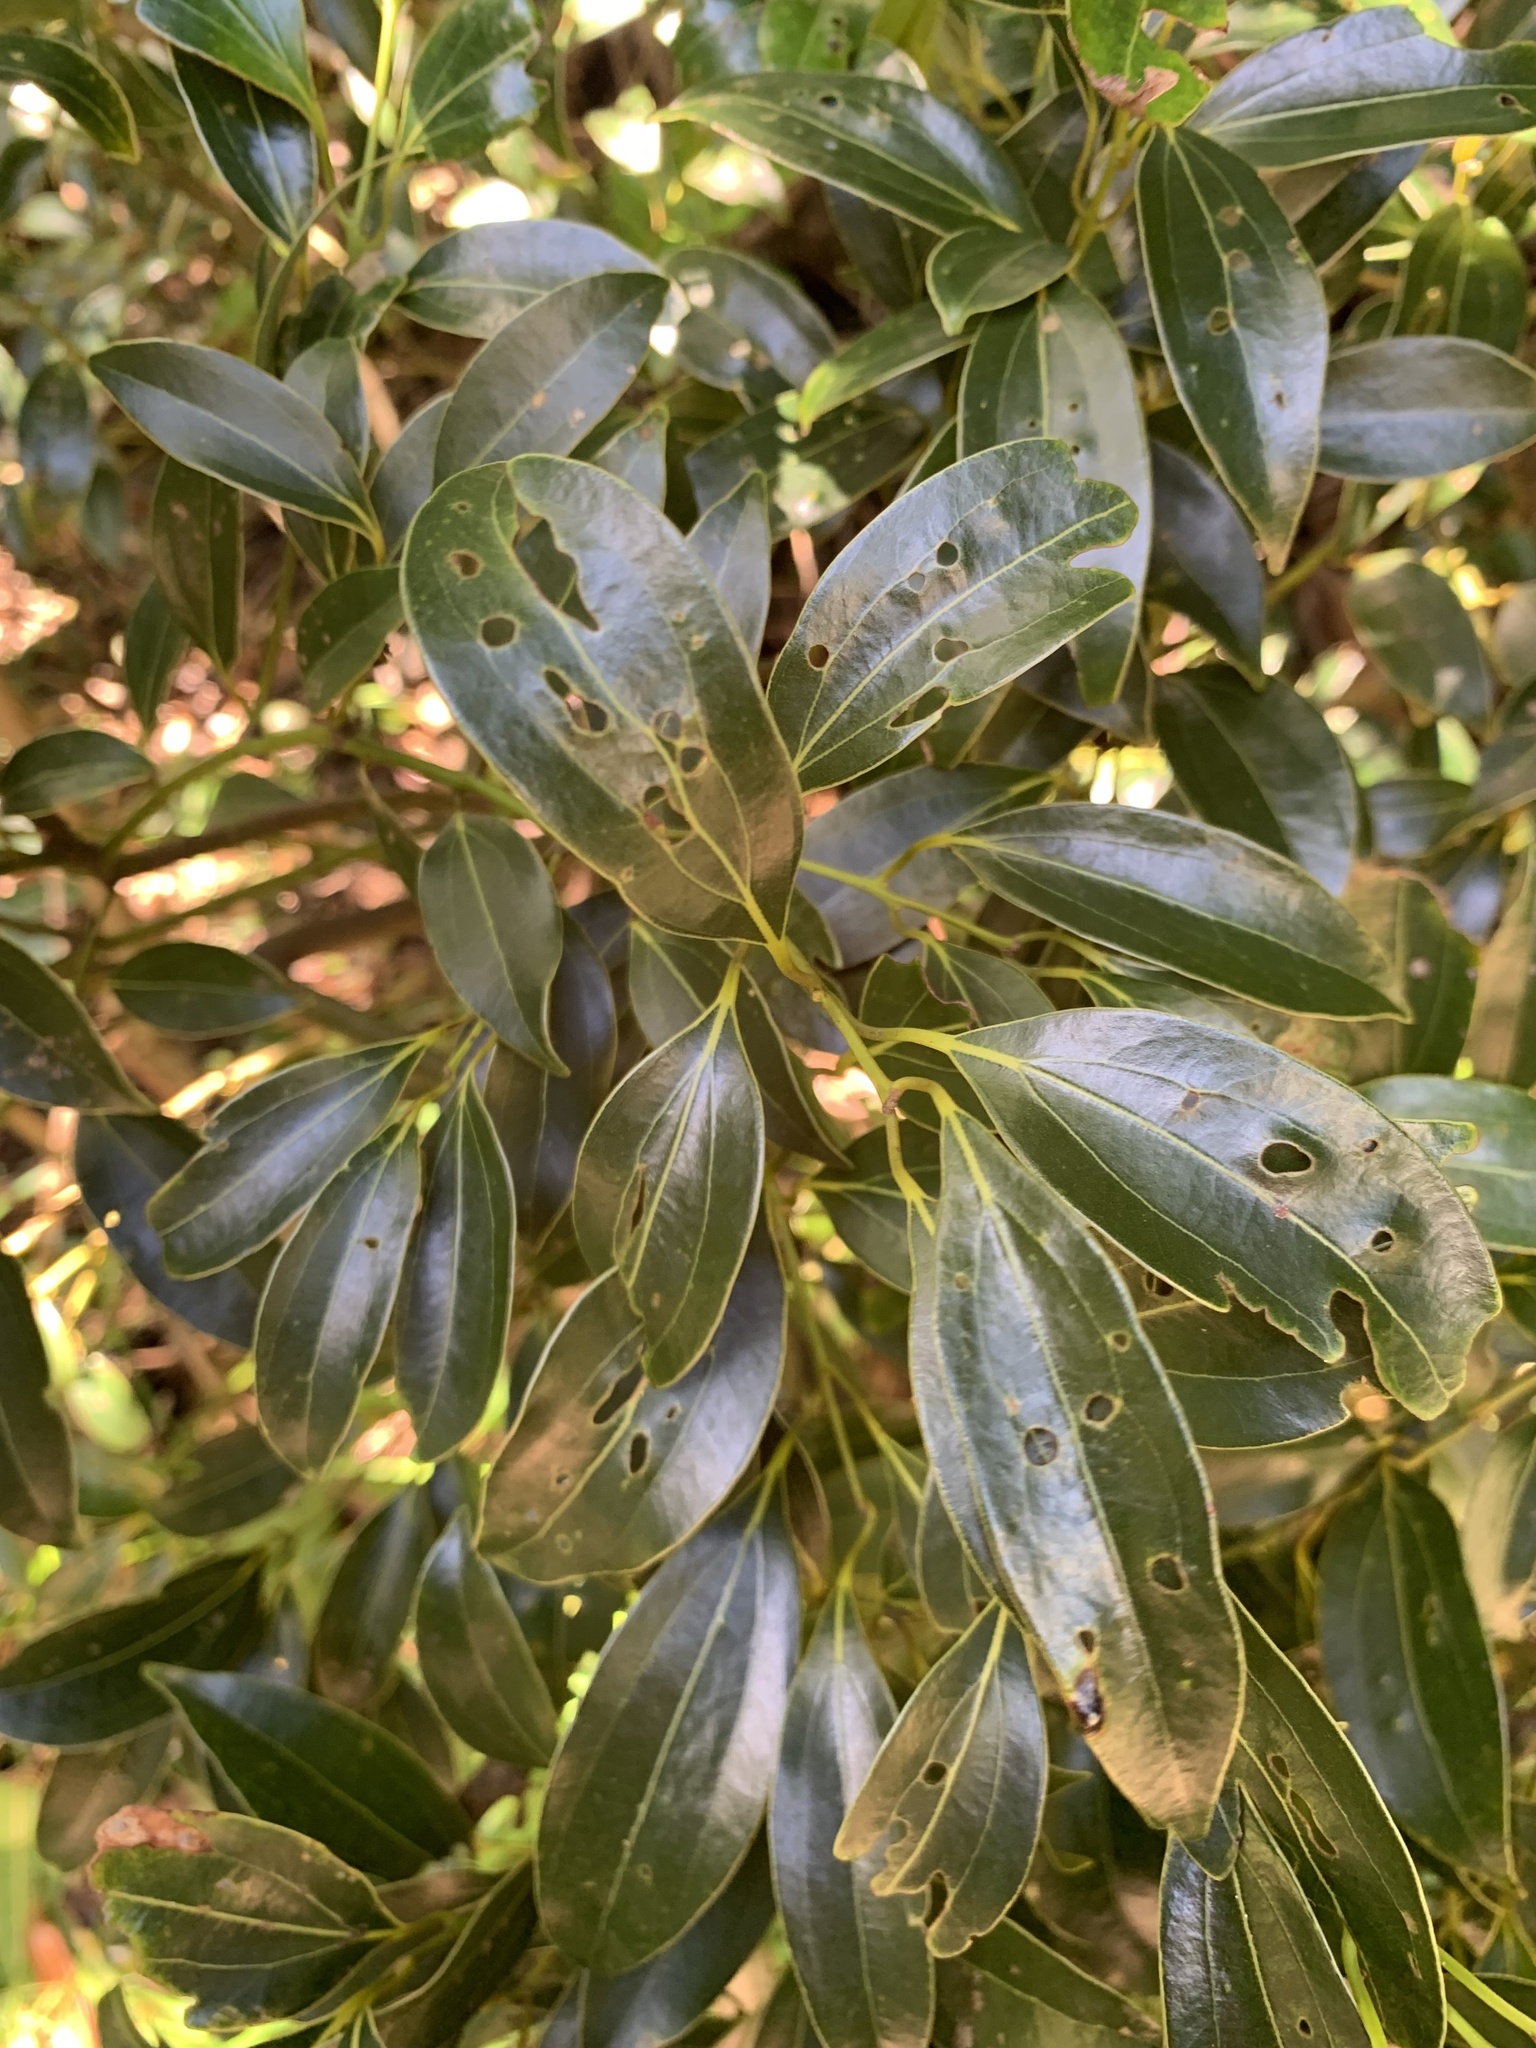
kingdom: Plantae
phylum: Tracheophyta
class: Magnoliopsida
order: Laurales
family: Lauraceae
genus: Cinnamomum
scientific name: Cinnamomum pseudopedunculatum
